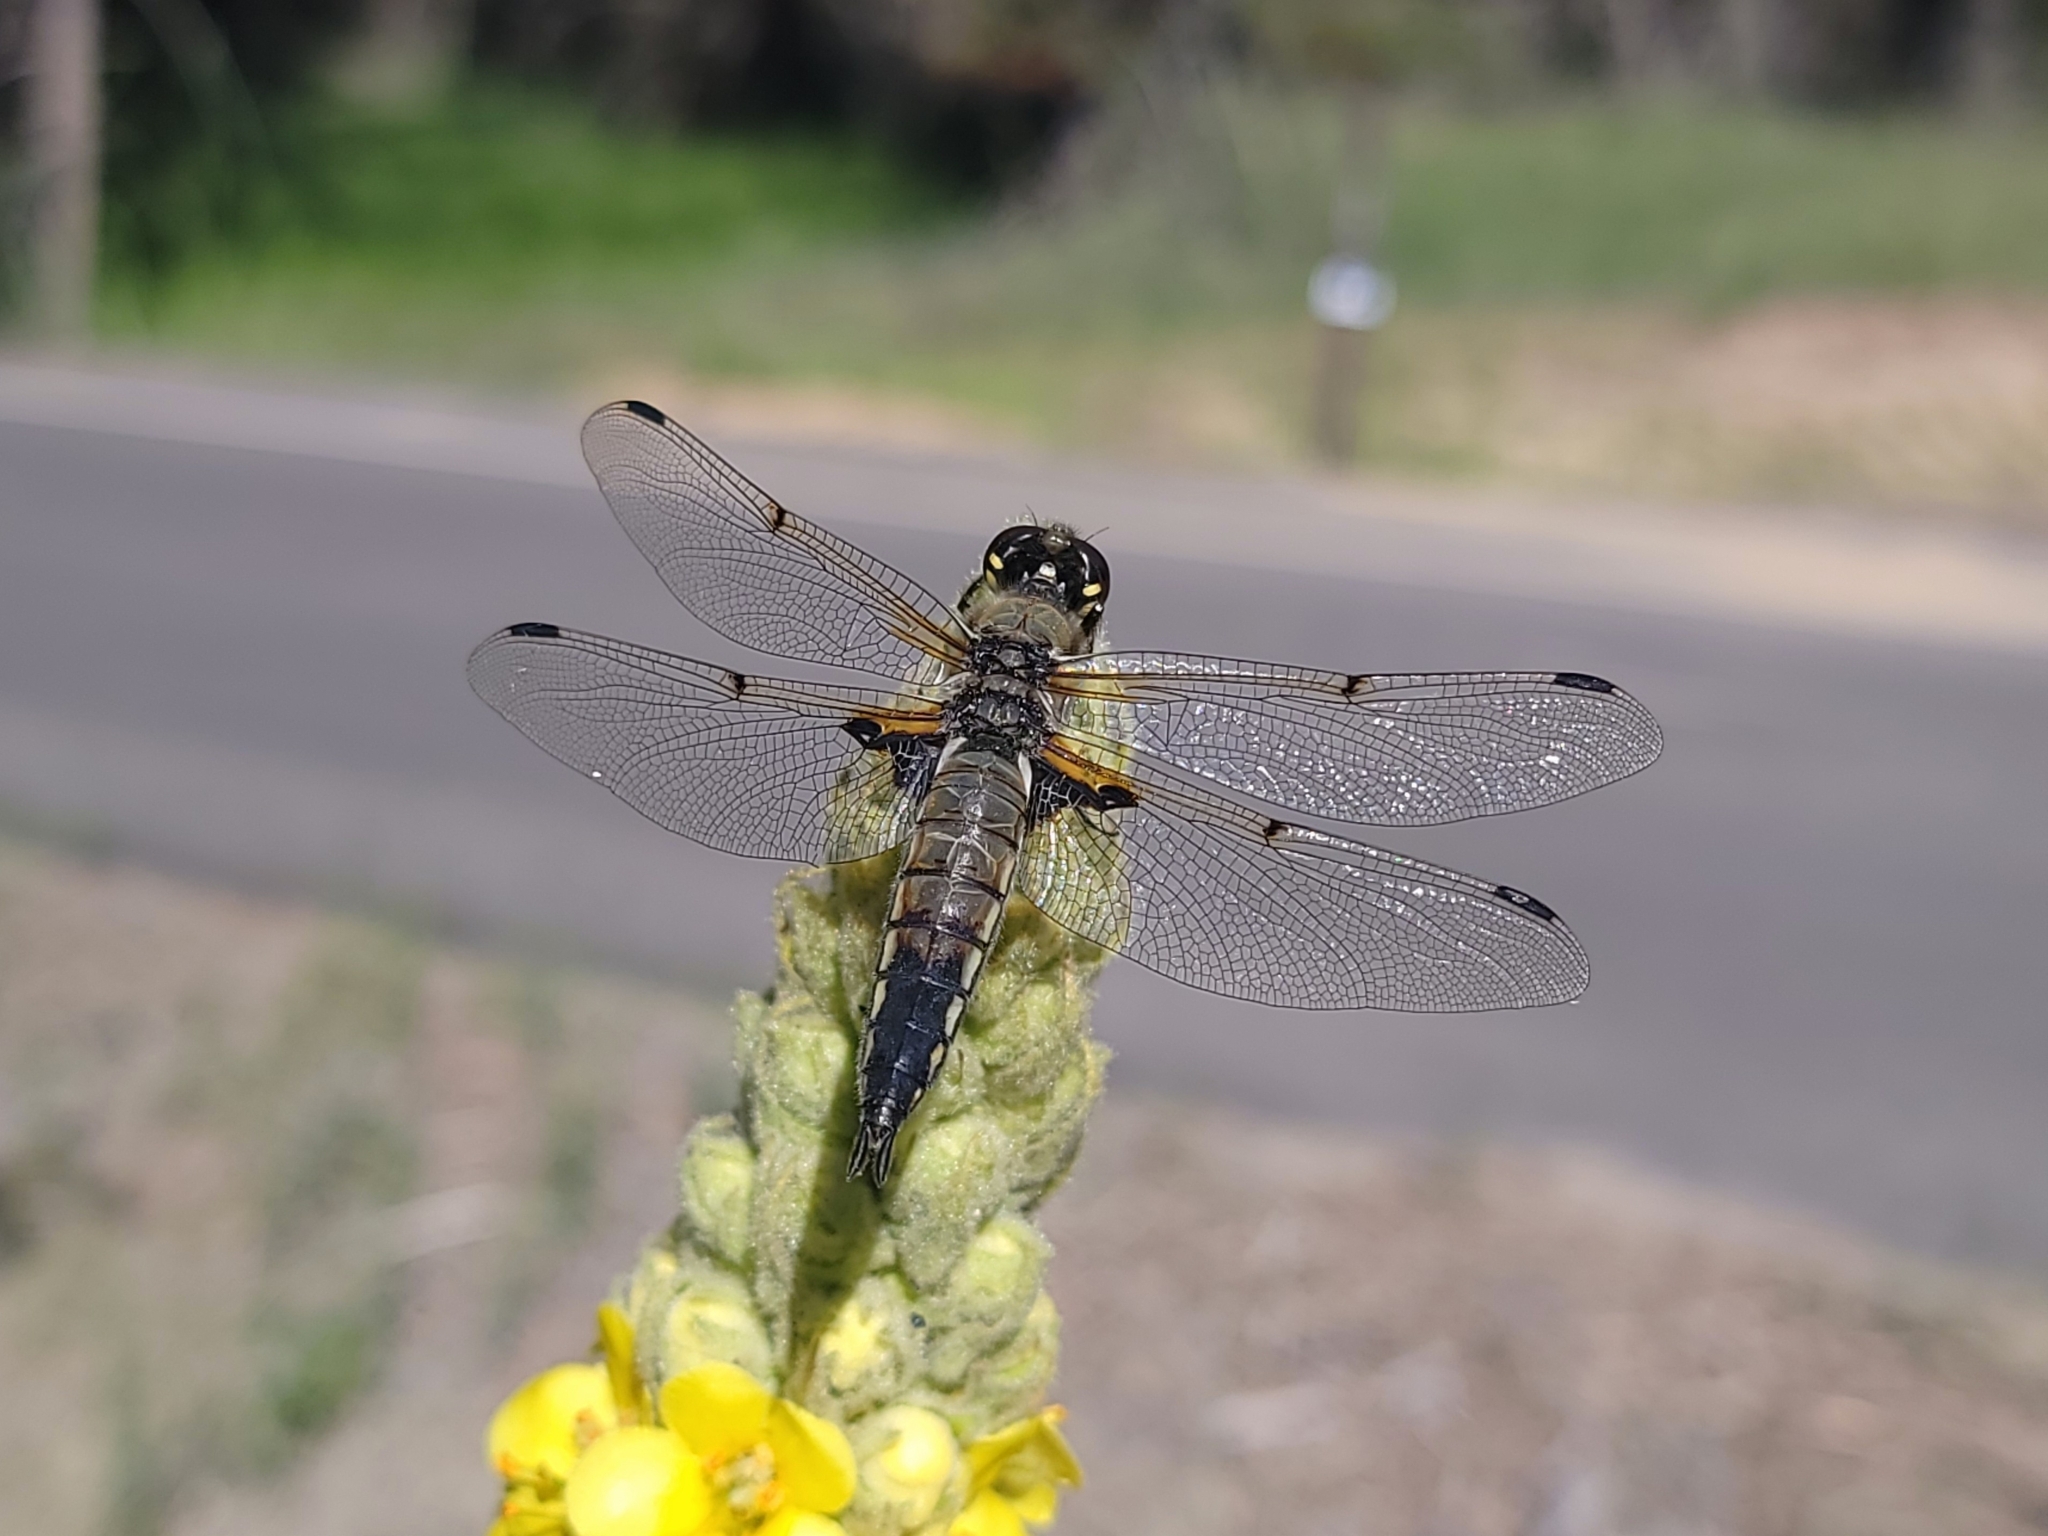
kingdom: Animalia
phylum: Arthropoda
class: Insecta
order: Odonata
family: Libellulidae
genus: Libellula
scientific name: Libellula quadrimaculata
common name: Four-spotted chaser
